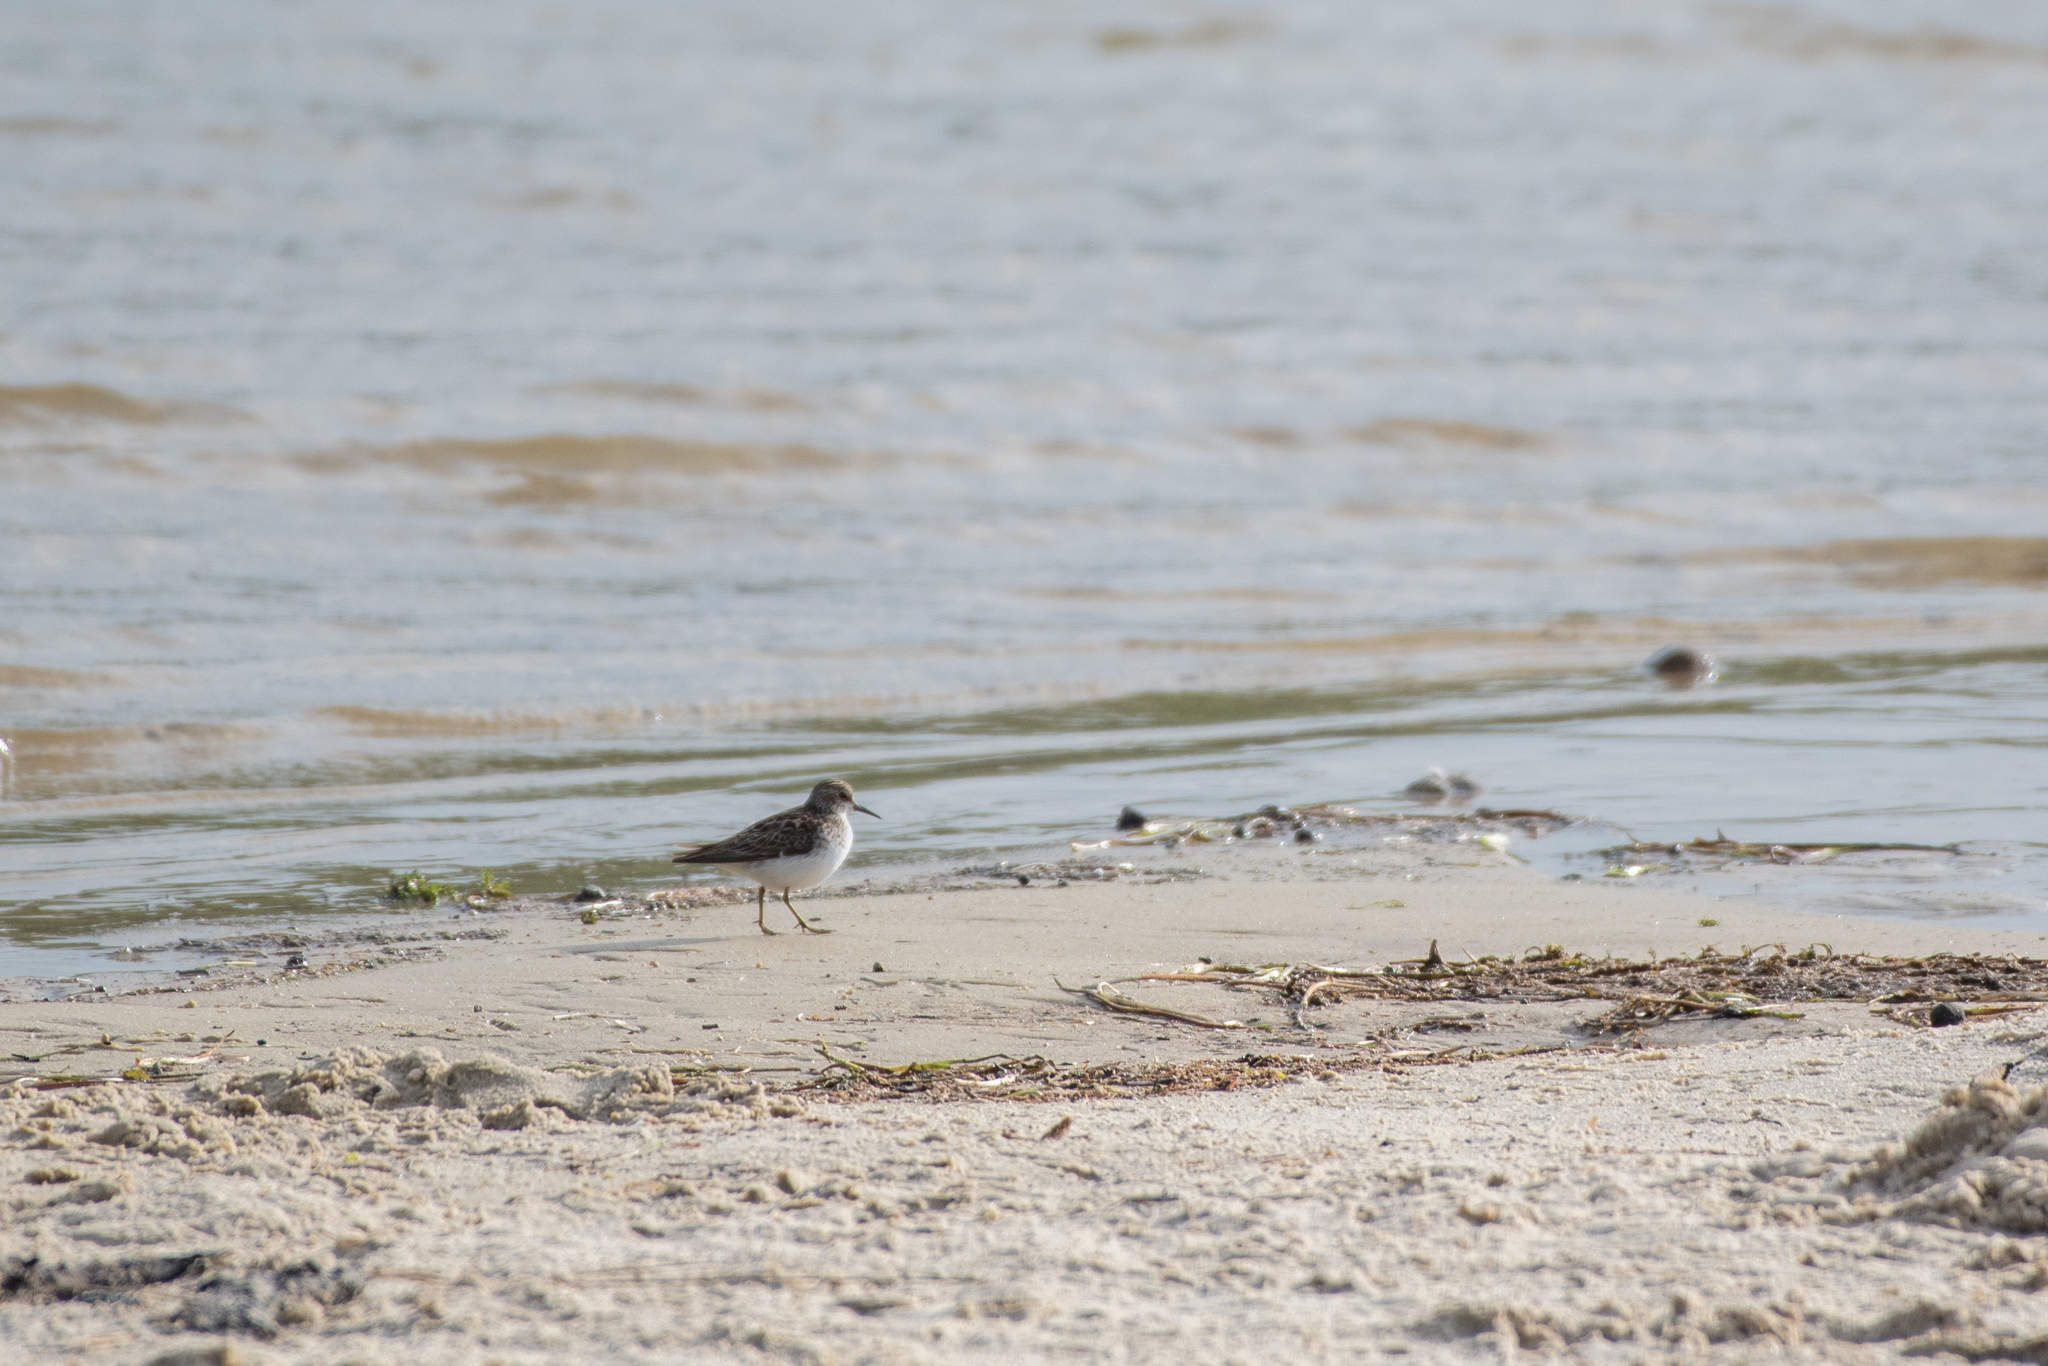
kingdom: Animalia
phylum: Chordata
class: Aves
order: Charadriiformes
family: Scolopacidae
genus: Calidris
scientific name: Calidris minutilla
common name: Least sandpiper
